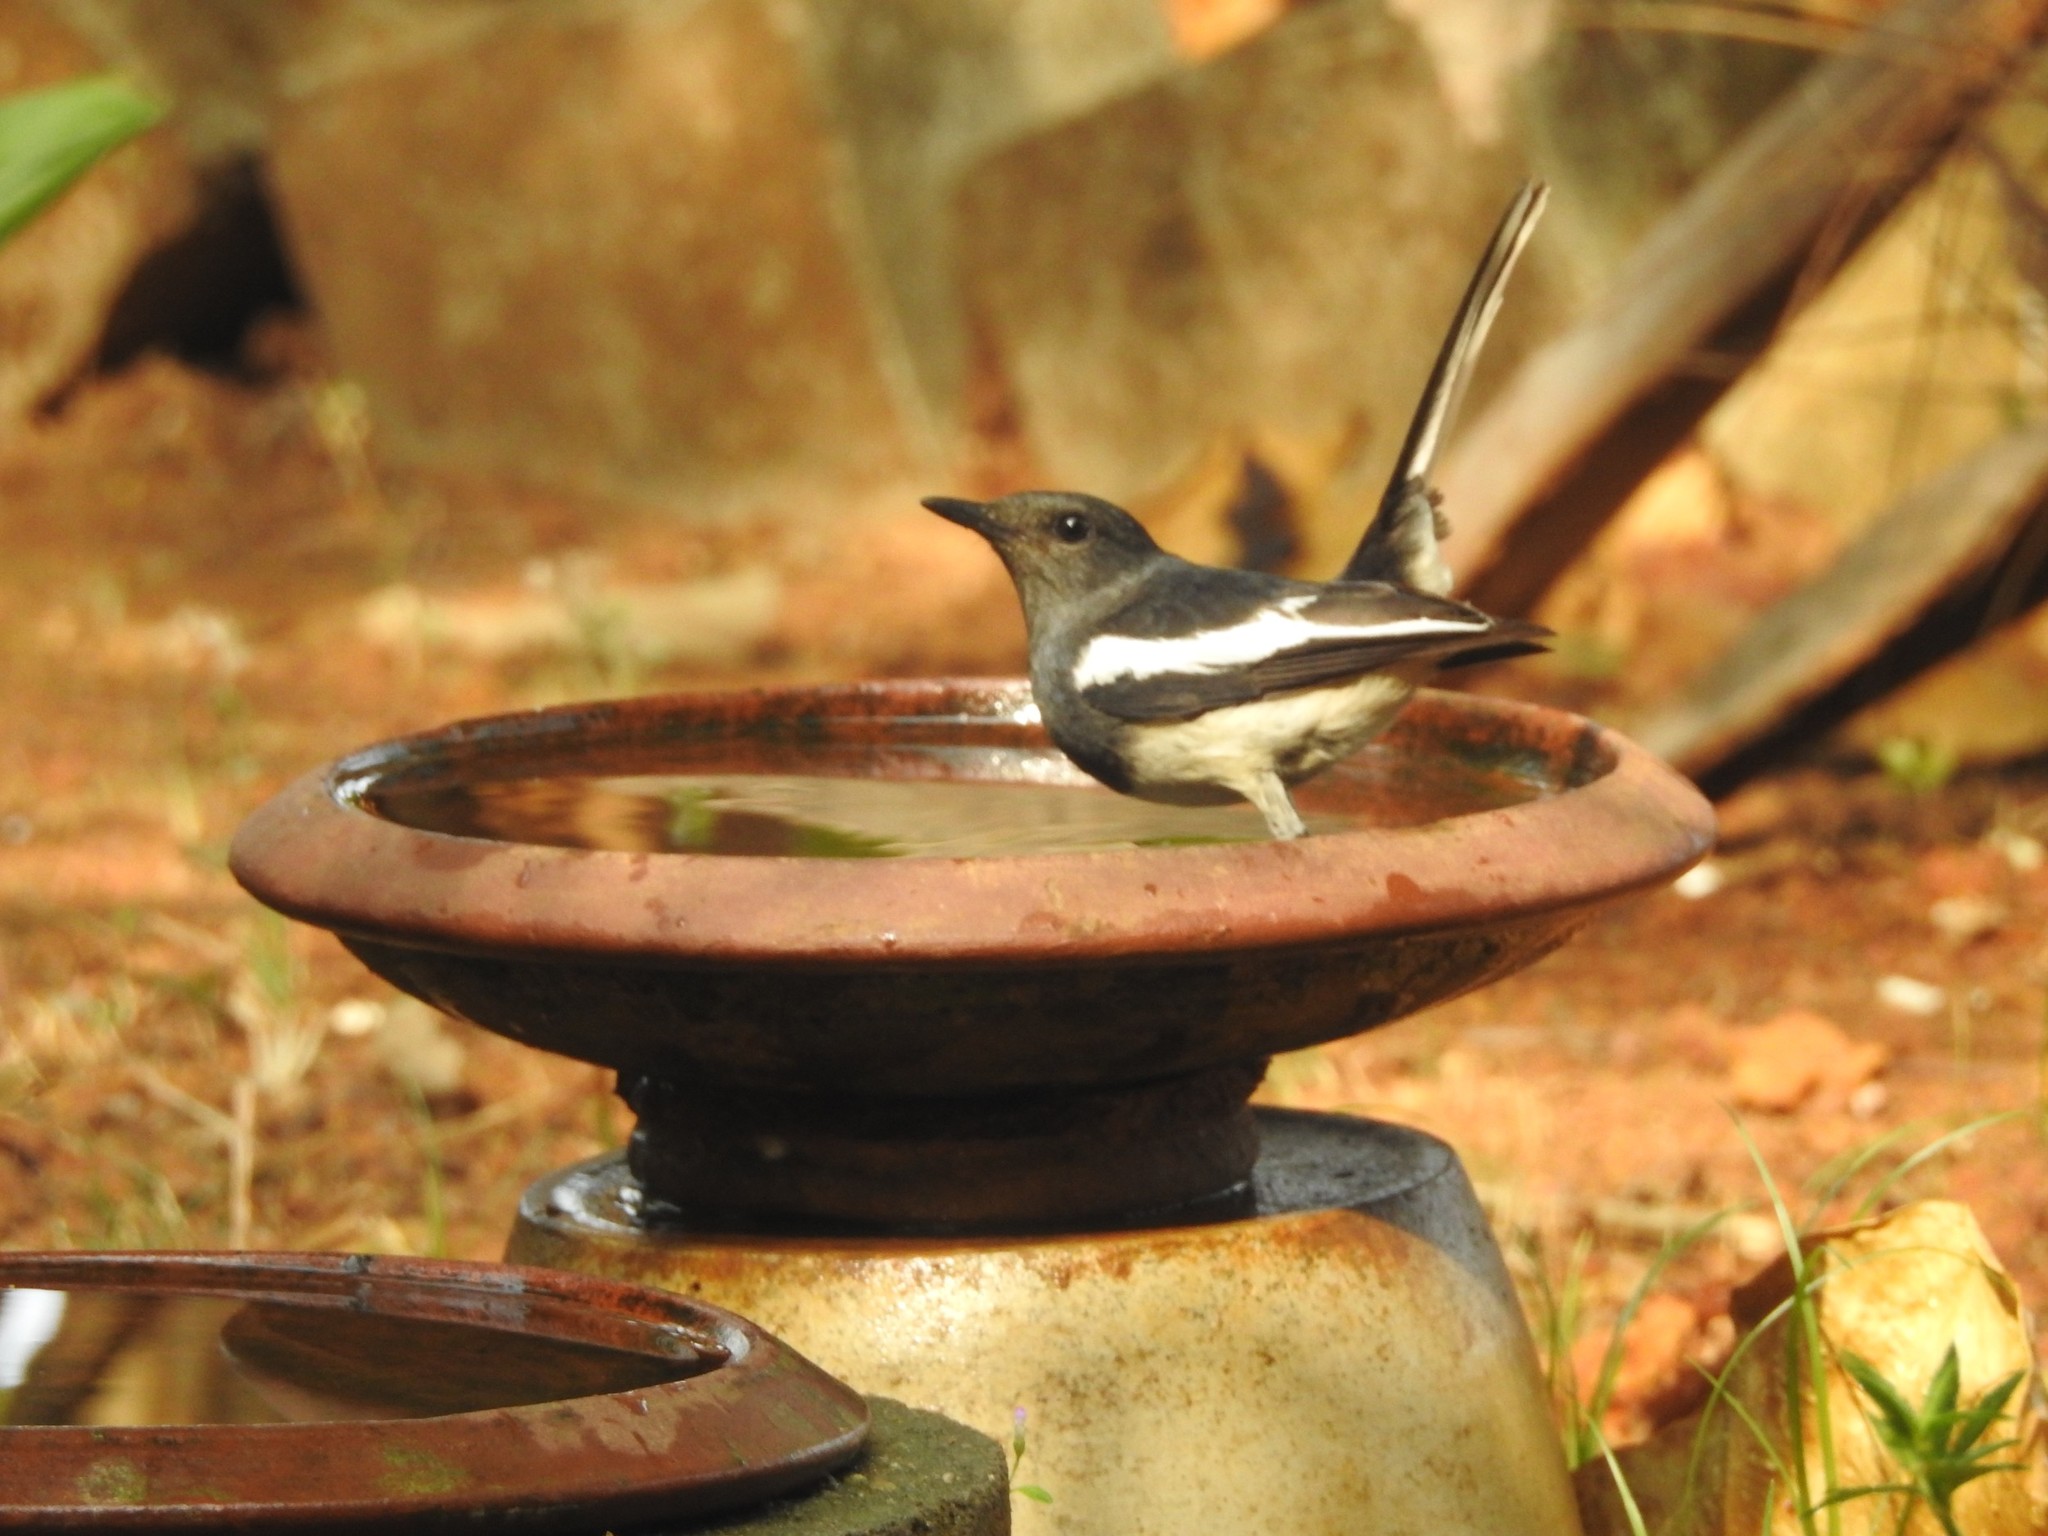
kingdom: Animalia
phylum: Chordata
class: Aves
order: Passeriformes
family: Muscicapidae
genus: Copsychus
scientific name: Copsychus saularis
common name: Oriental magpie-robin
